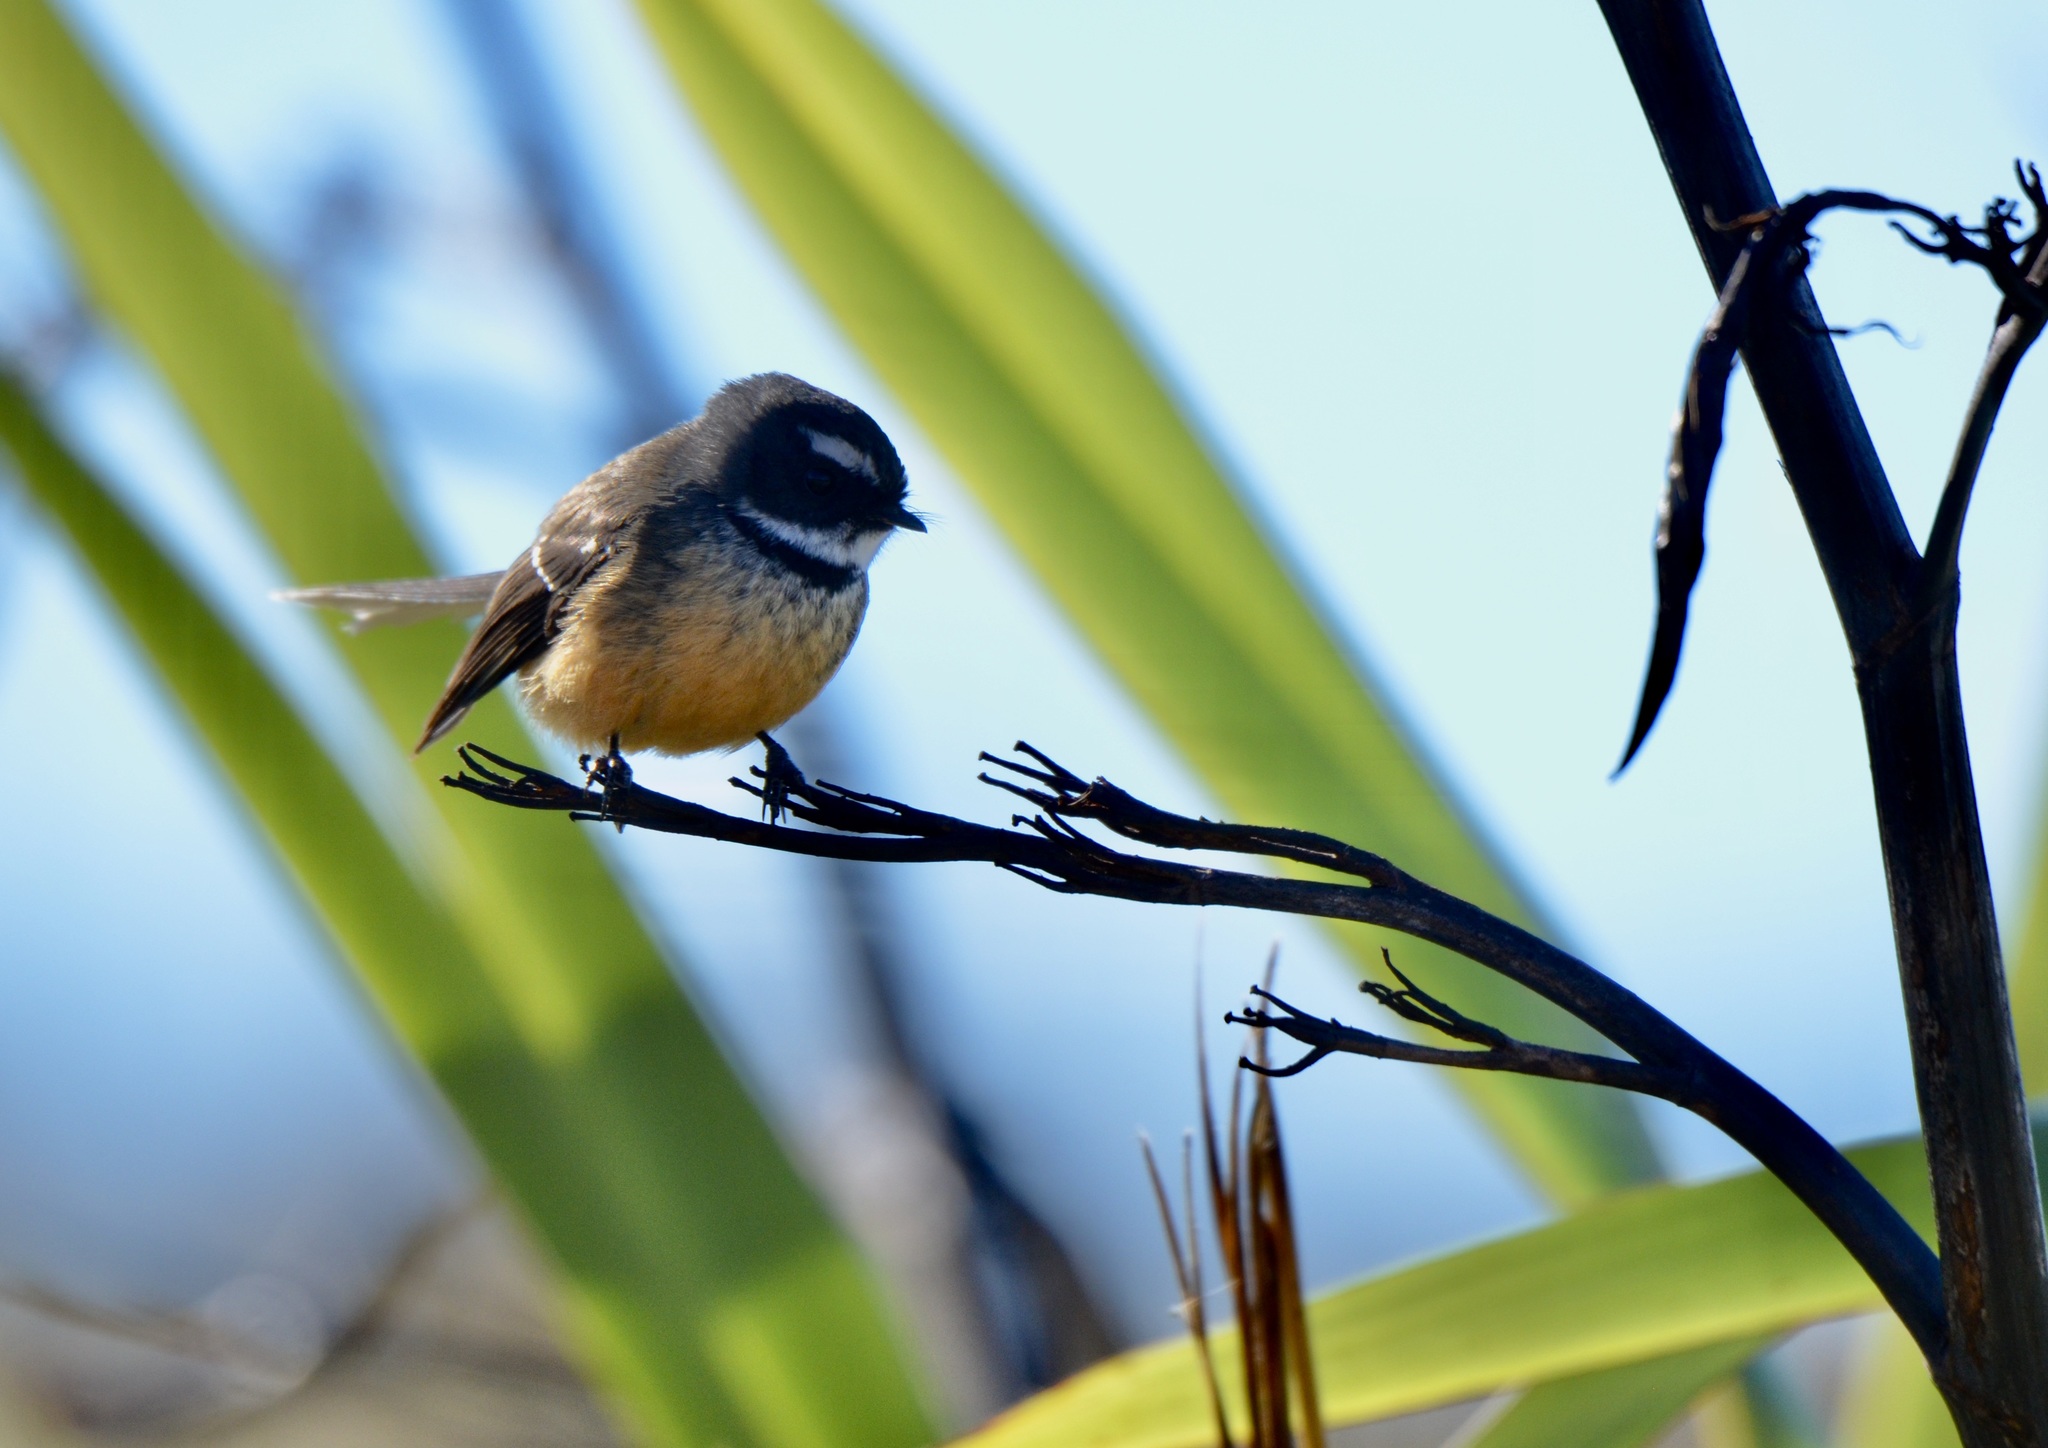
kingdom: Animalia
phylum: Chordata
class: Aves
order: Passeriformes
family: Rhipiduridae
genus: Rhipidura
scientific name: Rhipidura fuliginosa
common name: New zealand fantail
